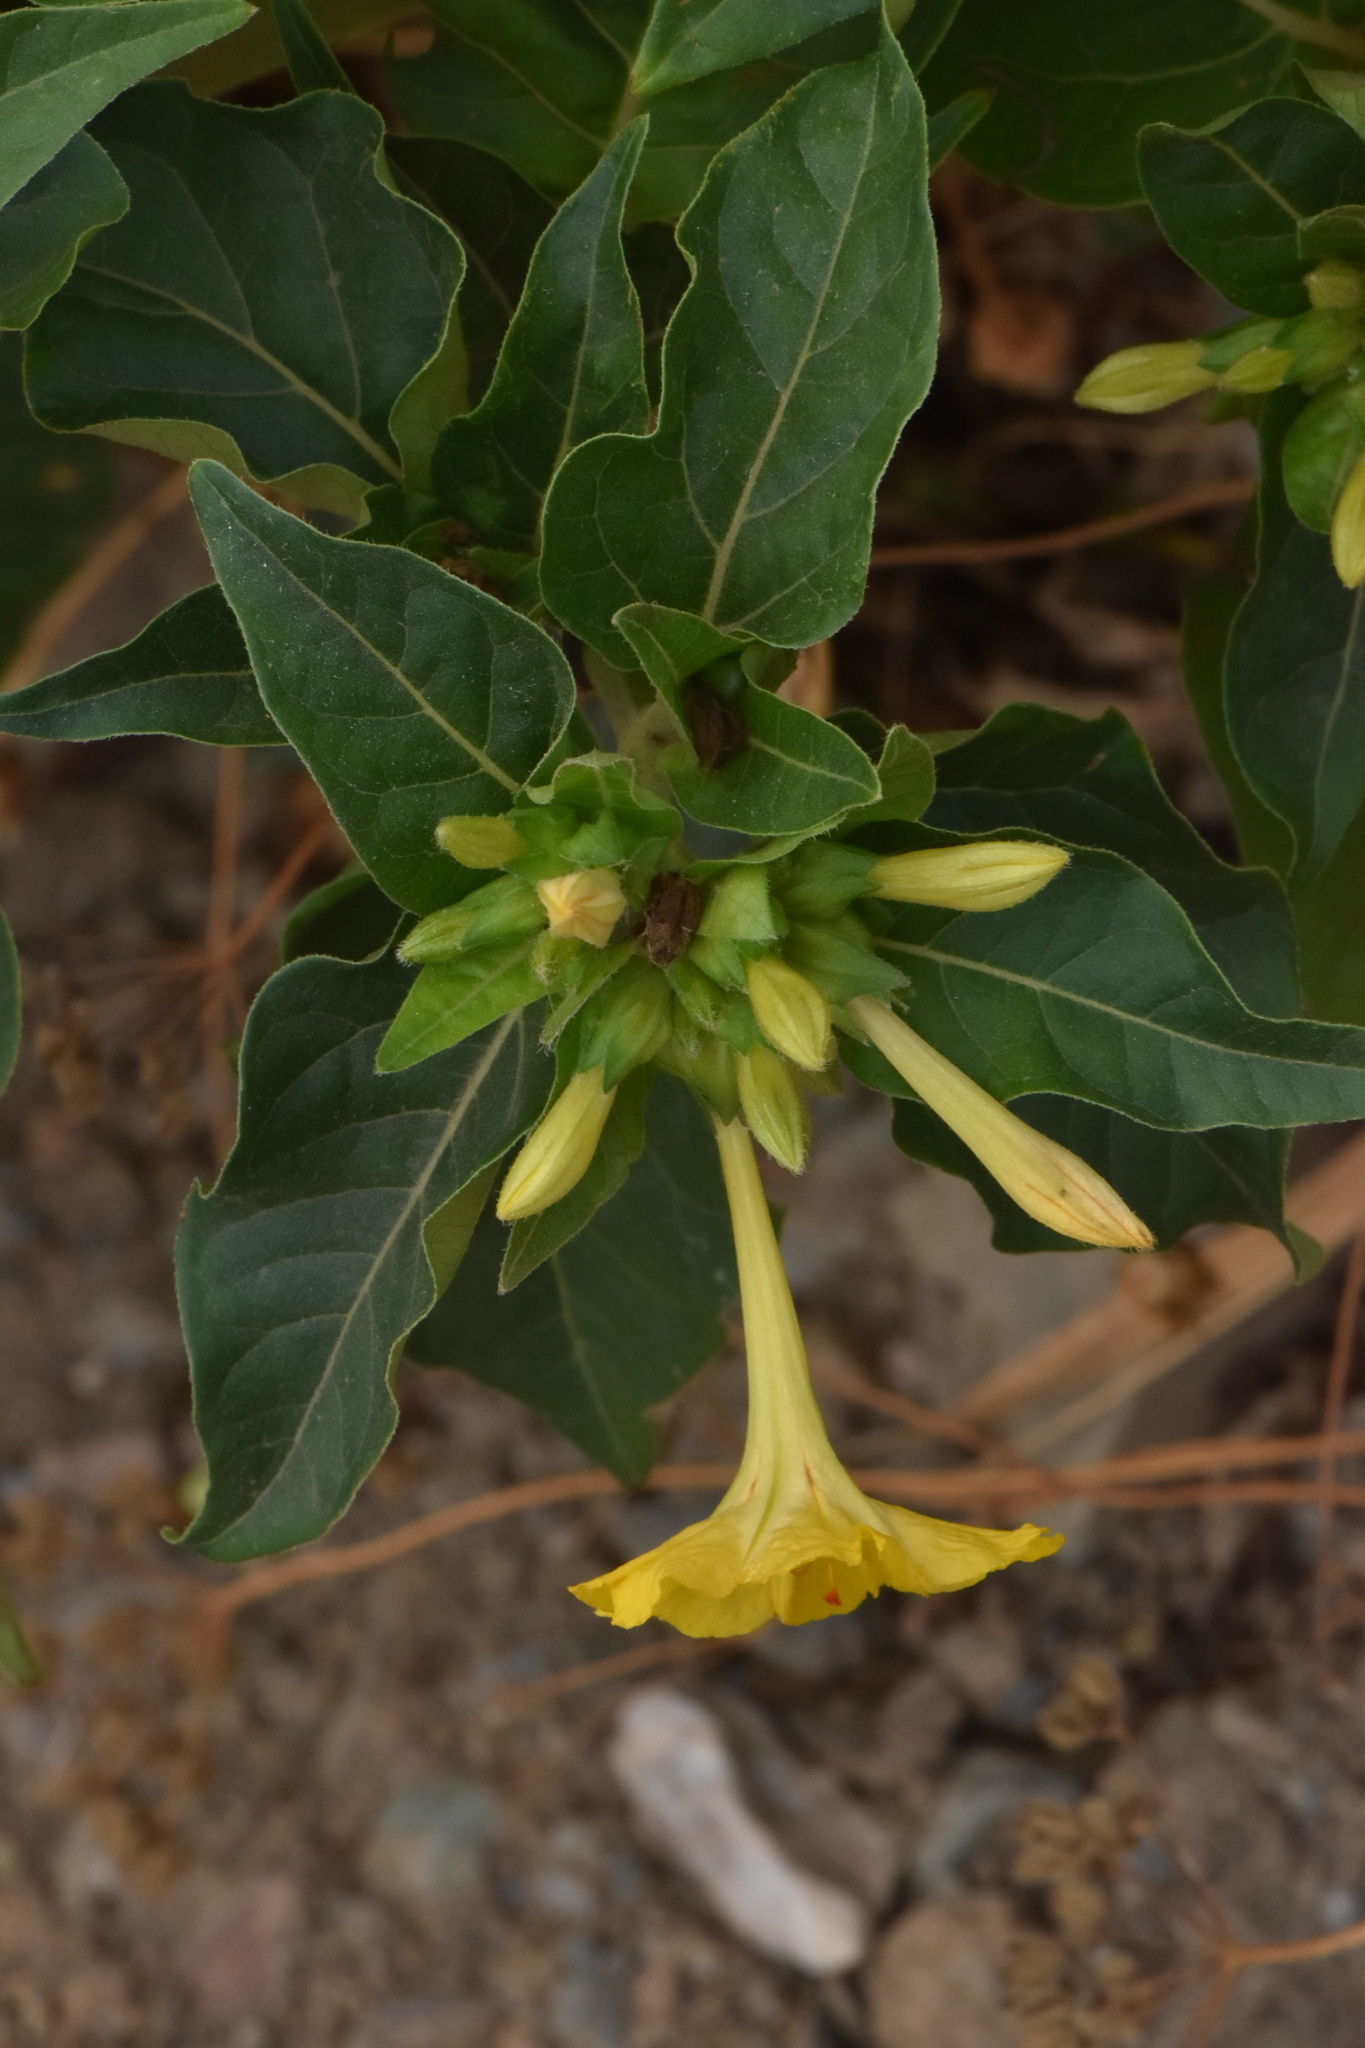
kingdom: Plantae
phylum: Tracheophyta
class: Magnoliopsida
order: Caryophyllales
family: Nyctaginaceae
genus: Mirabilis
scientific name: Mirabilis jalapa
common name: Marvel-of-peru
